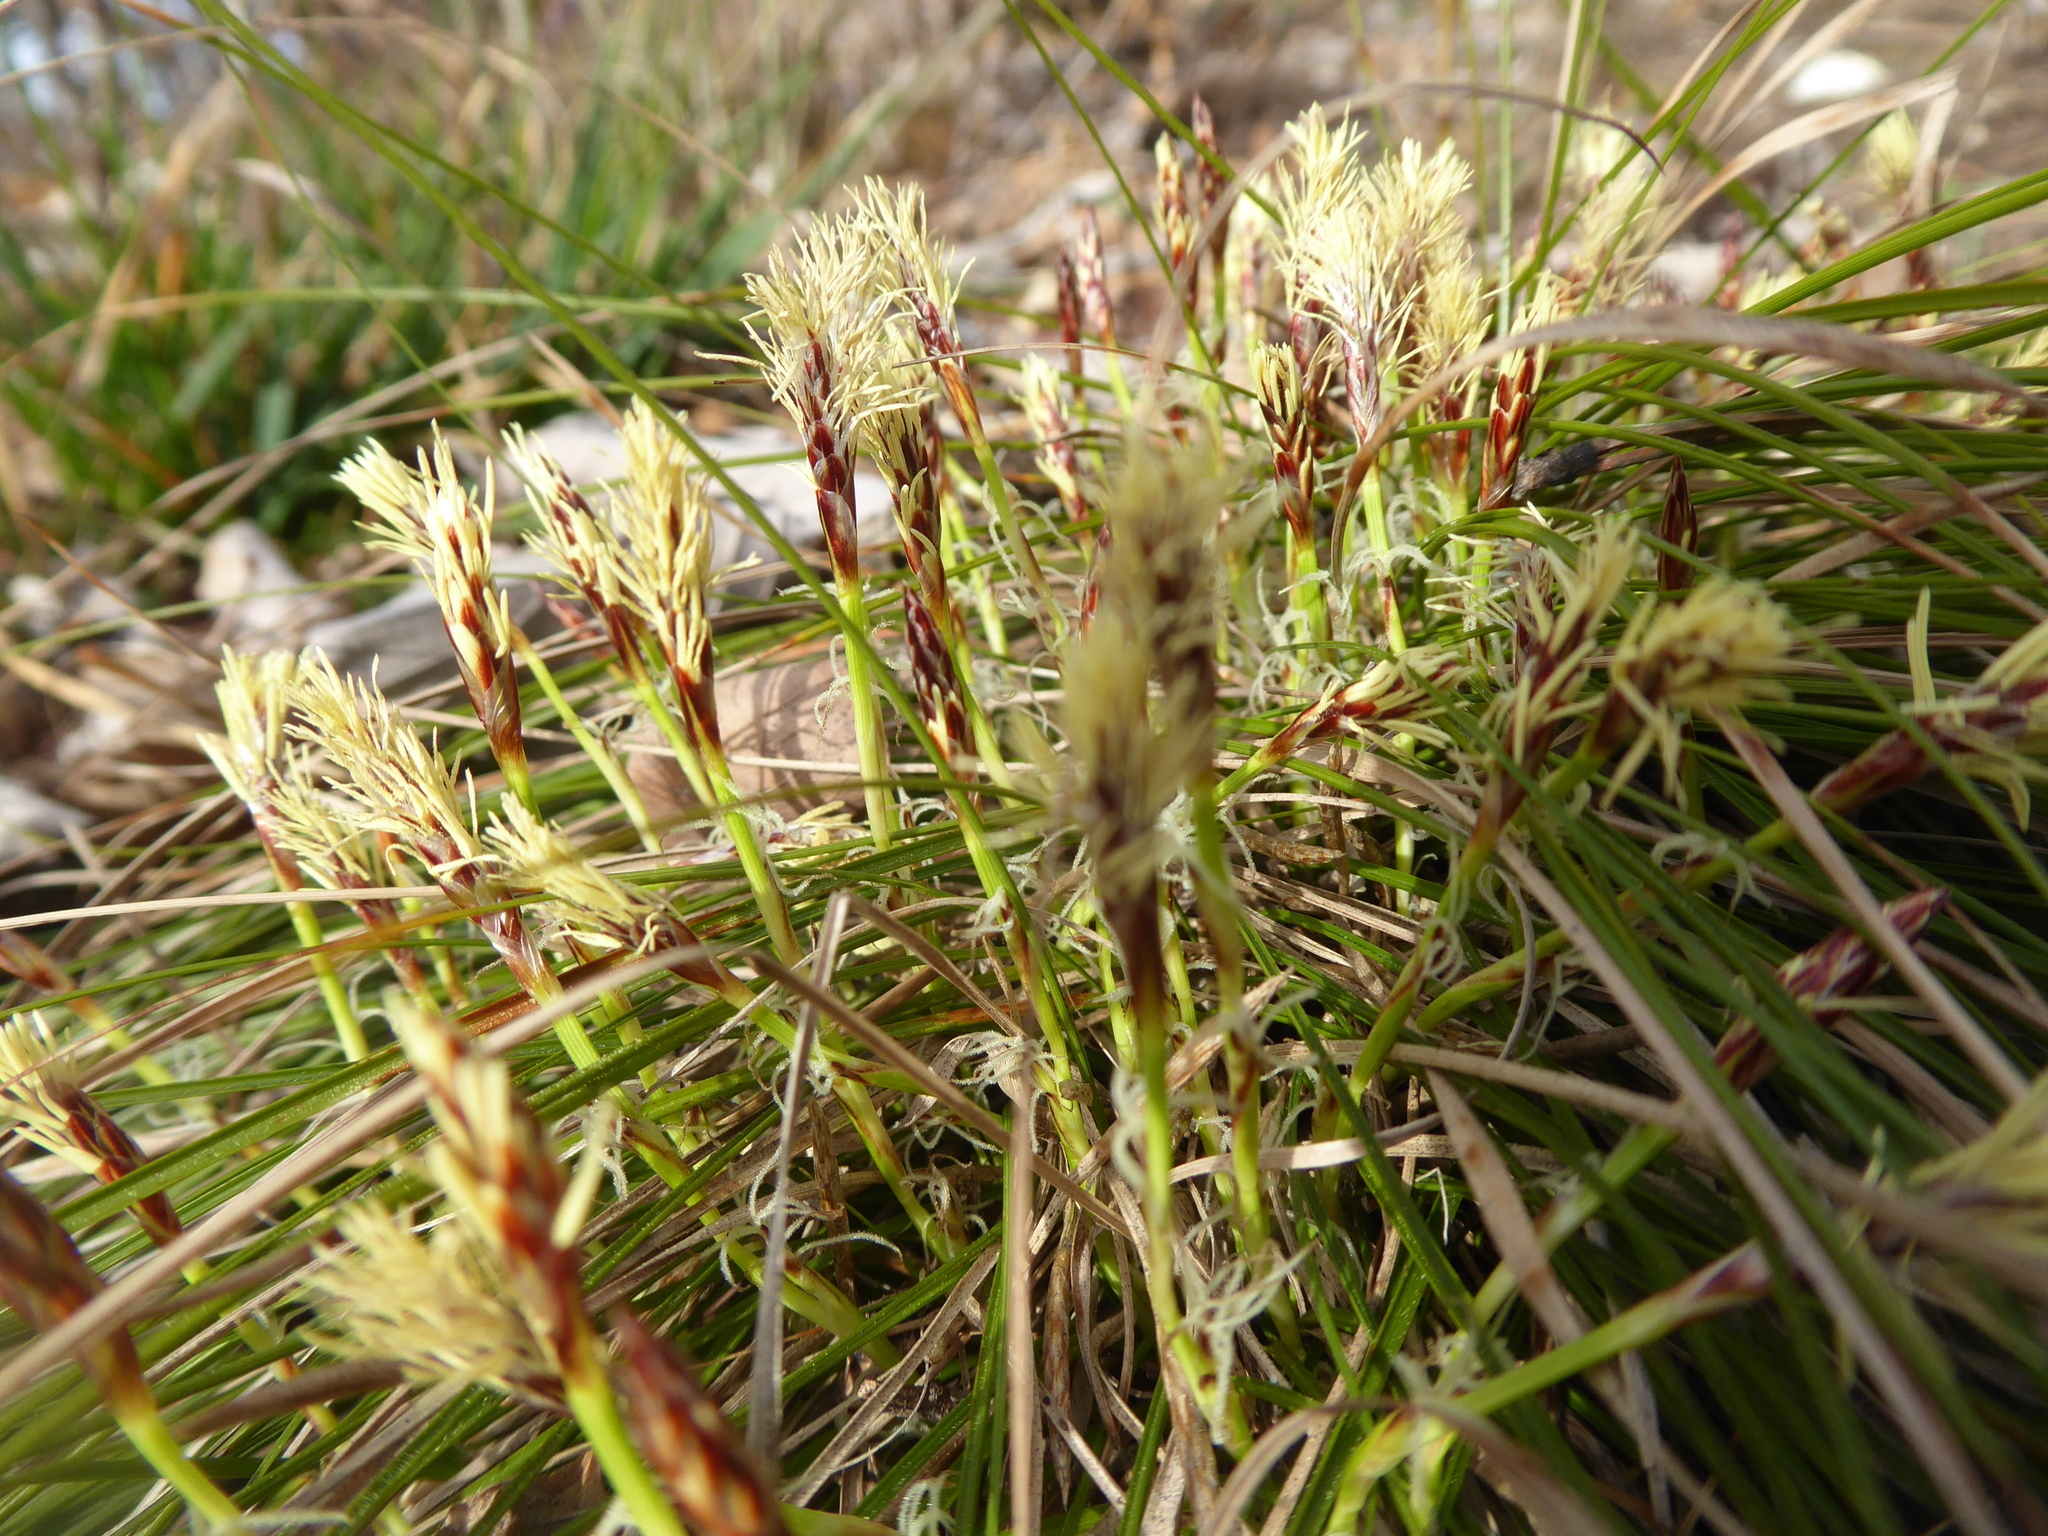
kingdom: Plantae
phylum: Tracheophyta
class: Liliopsida
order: Poales
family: Cyperaceae
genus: Carex
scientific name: Carex humilis
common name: Dwarf sedge
